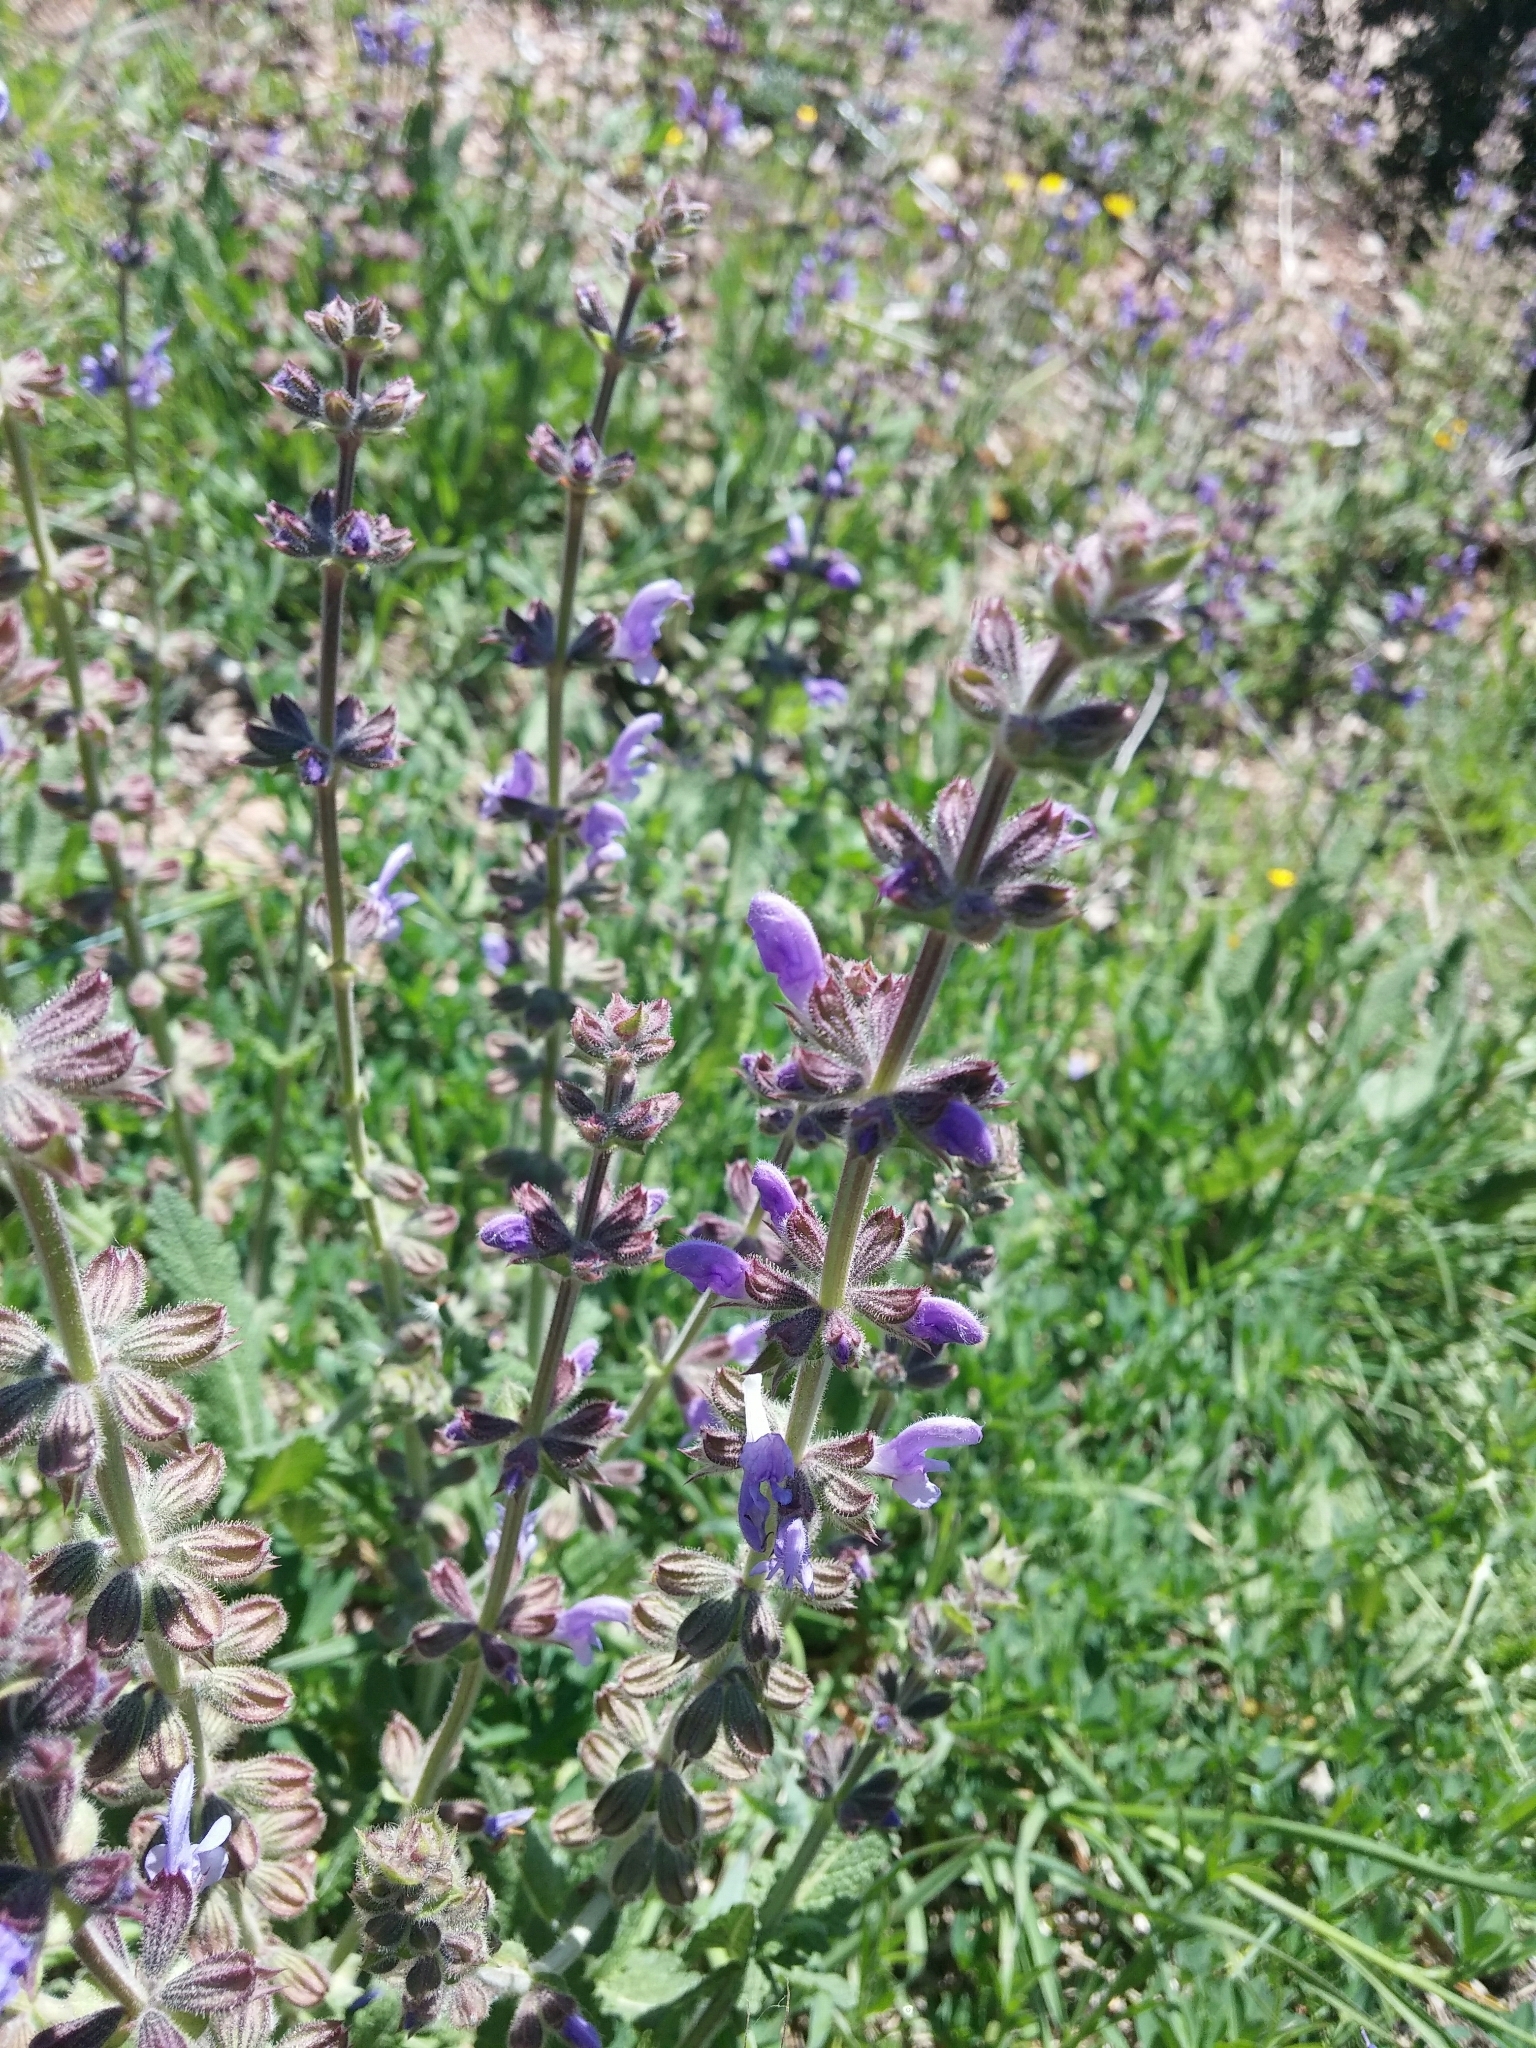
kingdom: Plantae
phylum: Tracheophyta
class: Magnoliopsida
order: Lamiales
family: Lamiaceae
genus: Salvia
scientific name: Salvia pratensis
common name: Meadow sage
